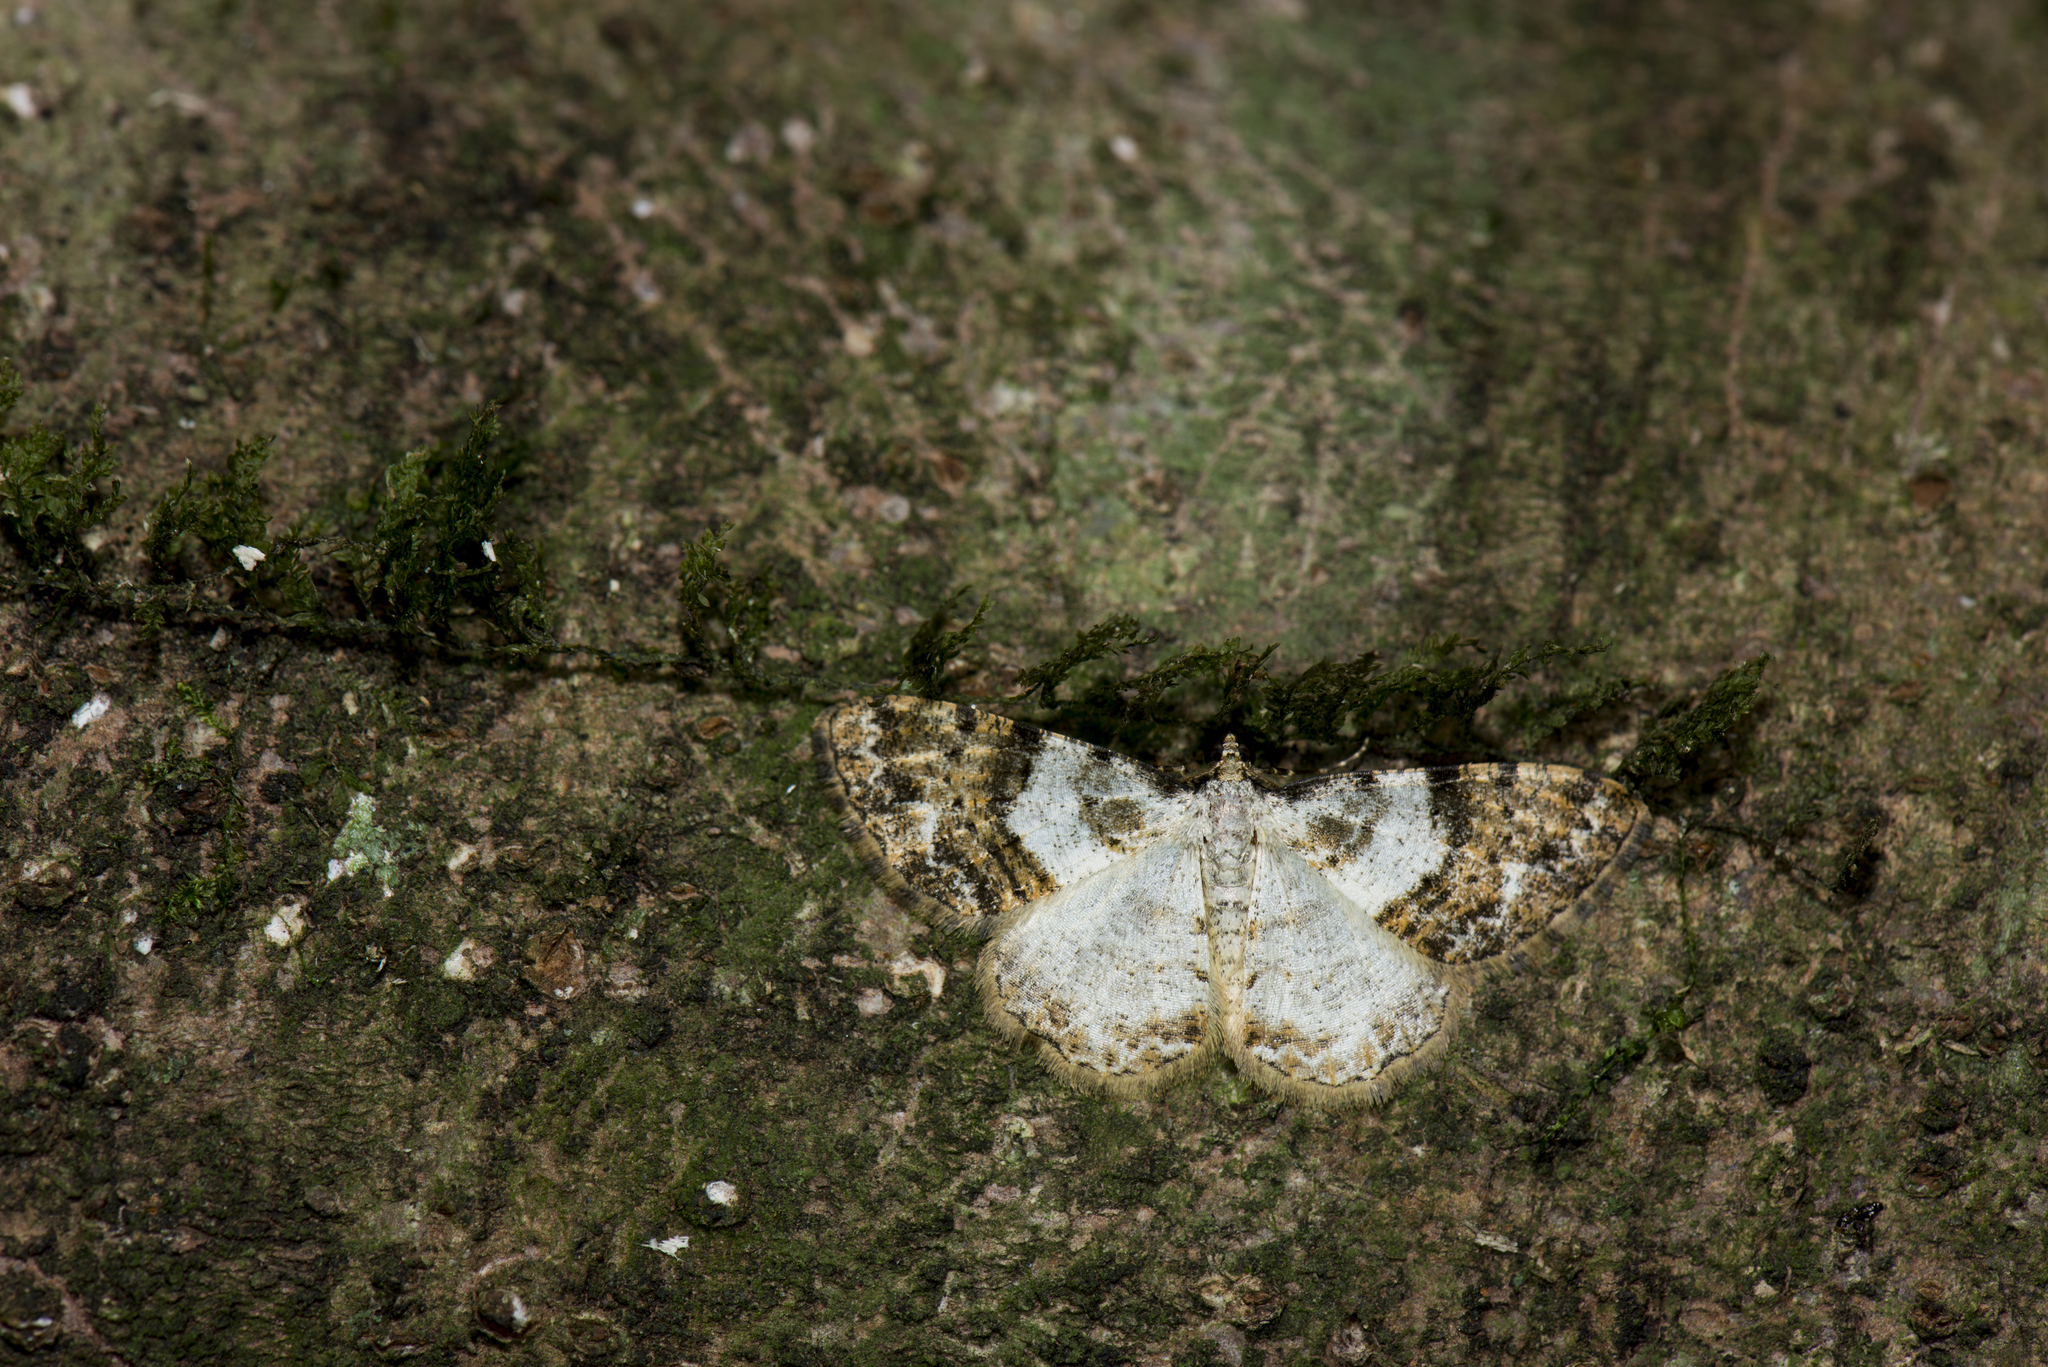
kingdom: Animalia
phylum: Arthropoda
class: Insecta
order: Lepidoptera
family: Geometridae
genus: Myrioblephara
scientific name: Myrioblephara albibasis
